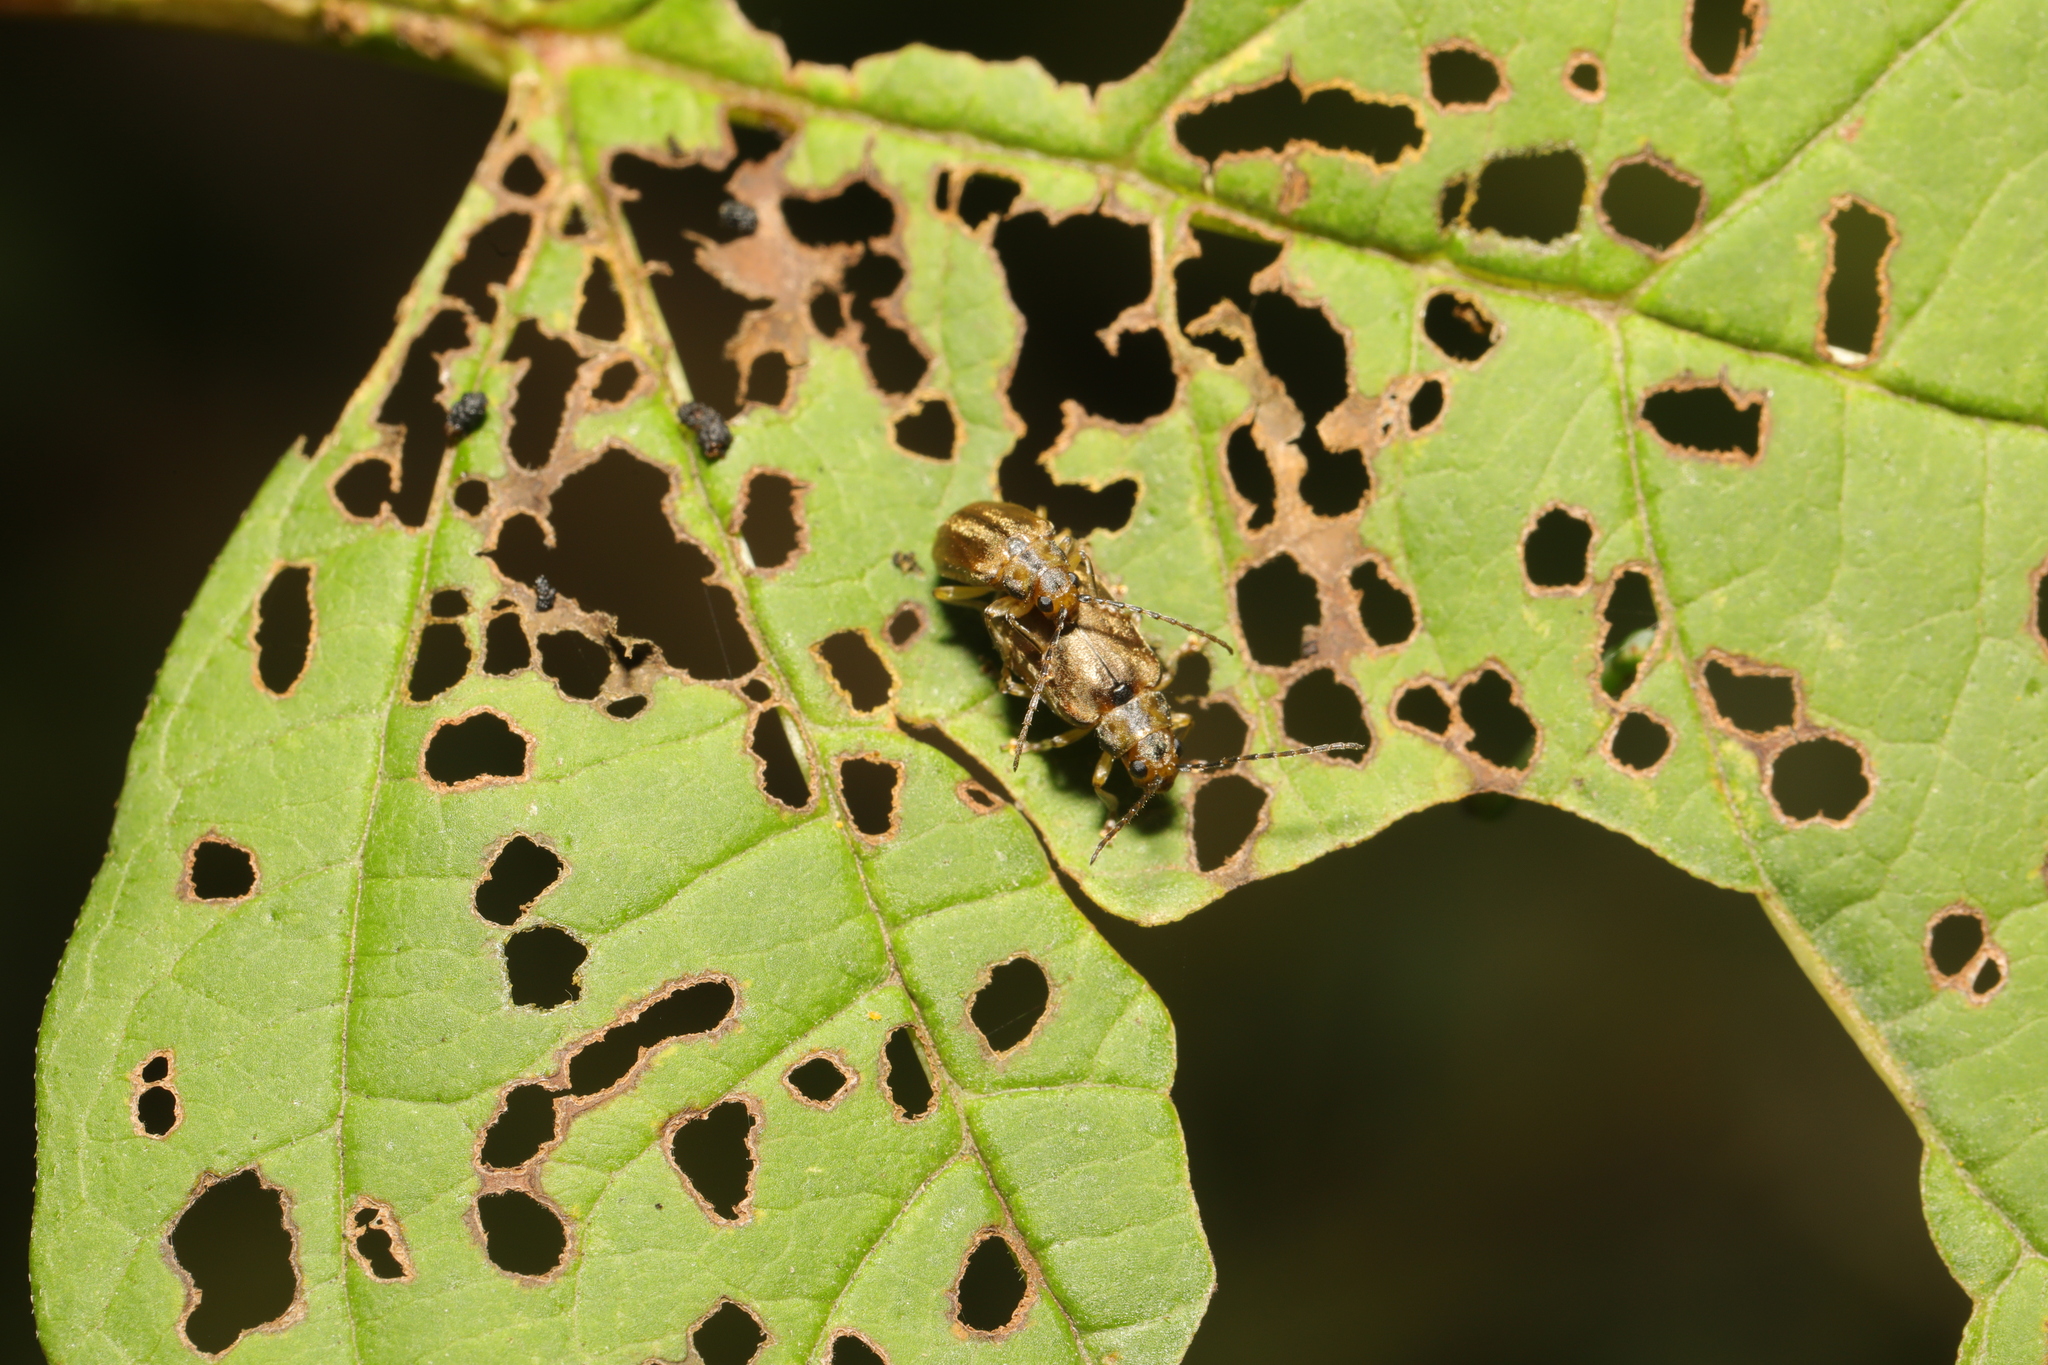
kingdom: Animalia
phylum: Arthropoda
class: Insecta
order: Coleoptera
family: Chrysomelidae
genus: Pyrrhalta
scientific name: Pyrrhalta viburni
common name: Guelder-rose leaf beetle
